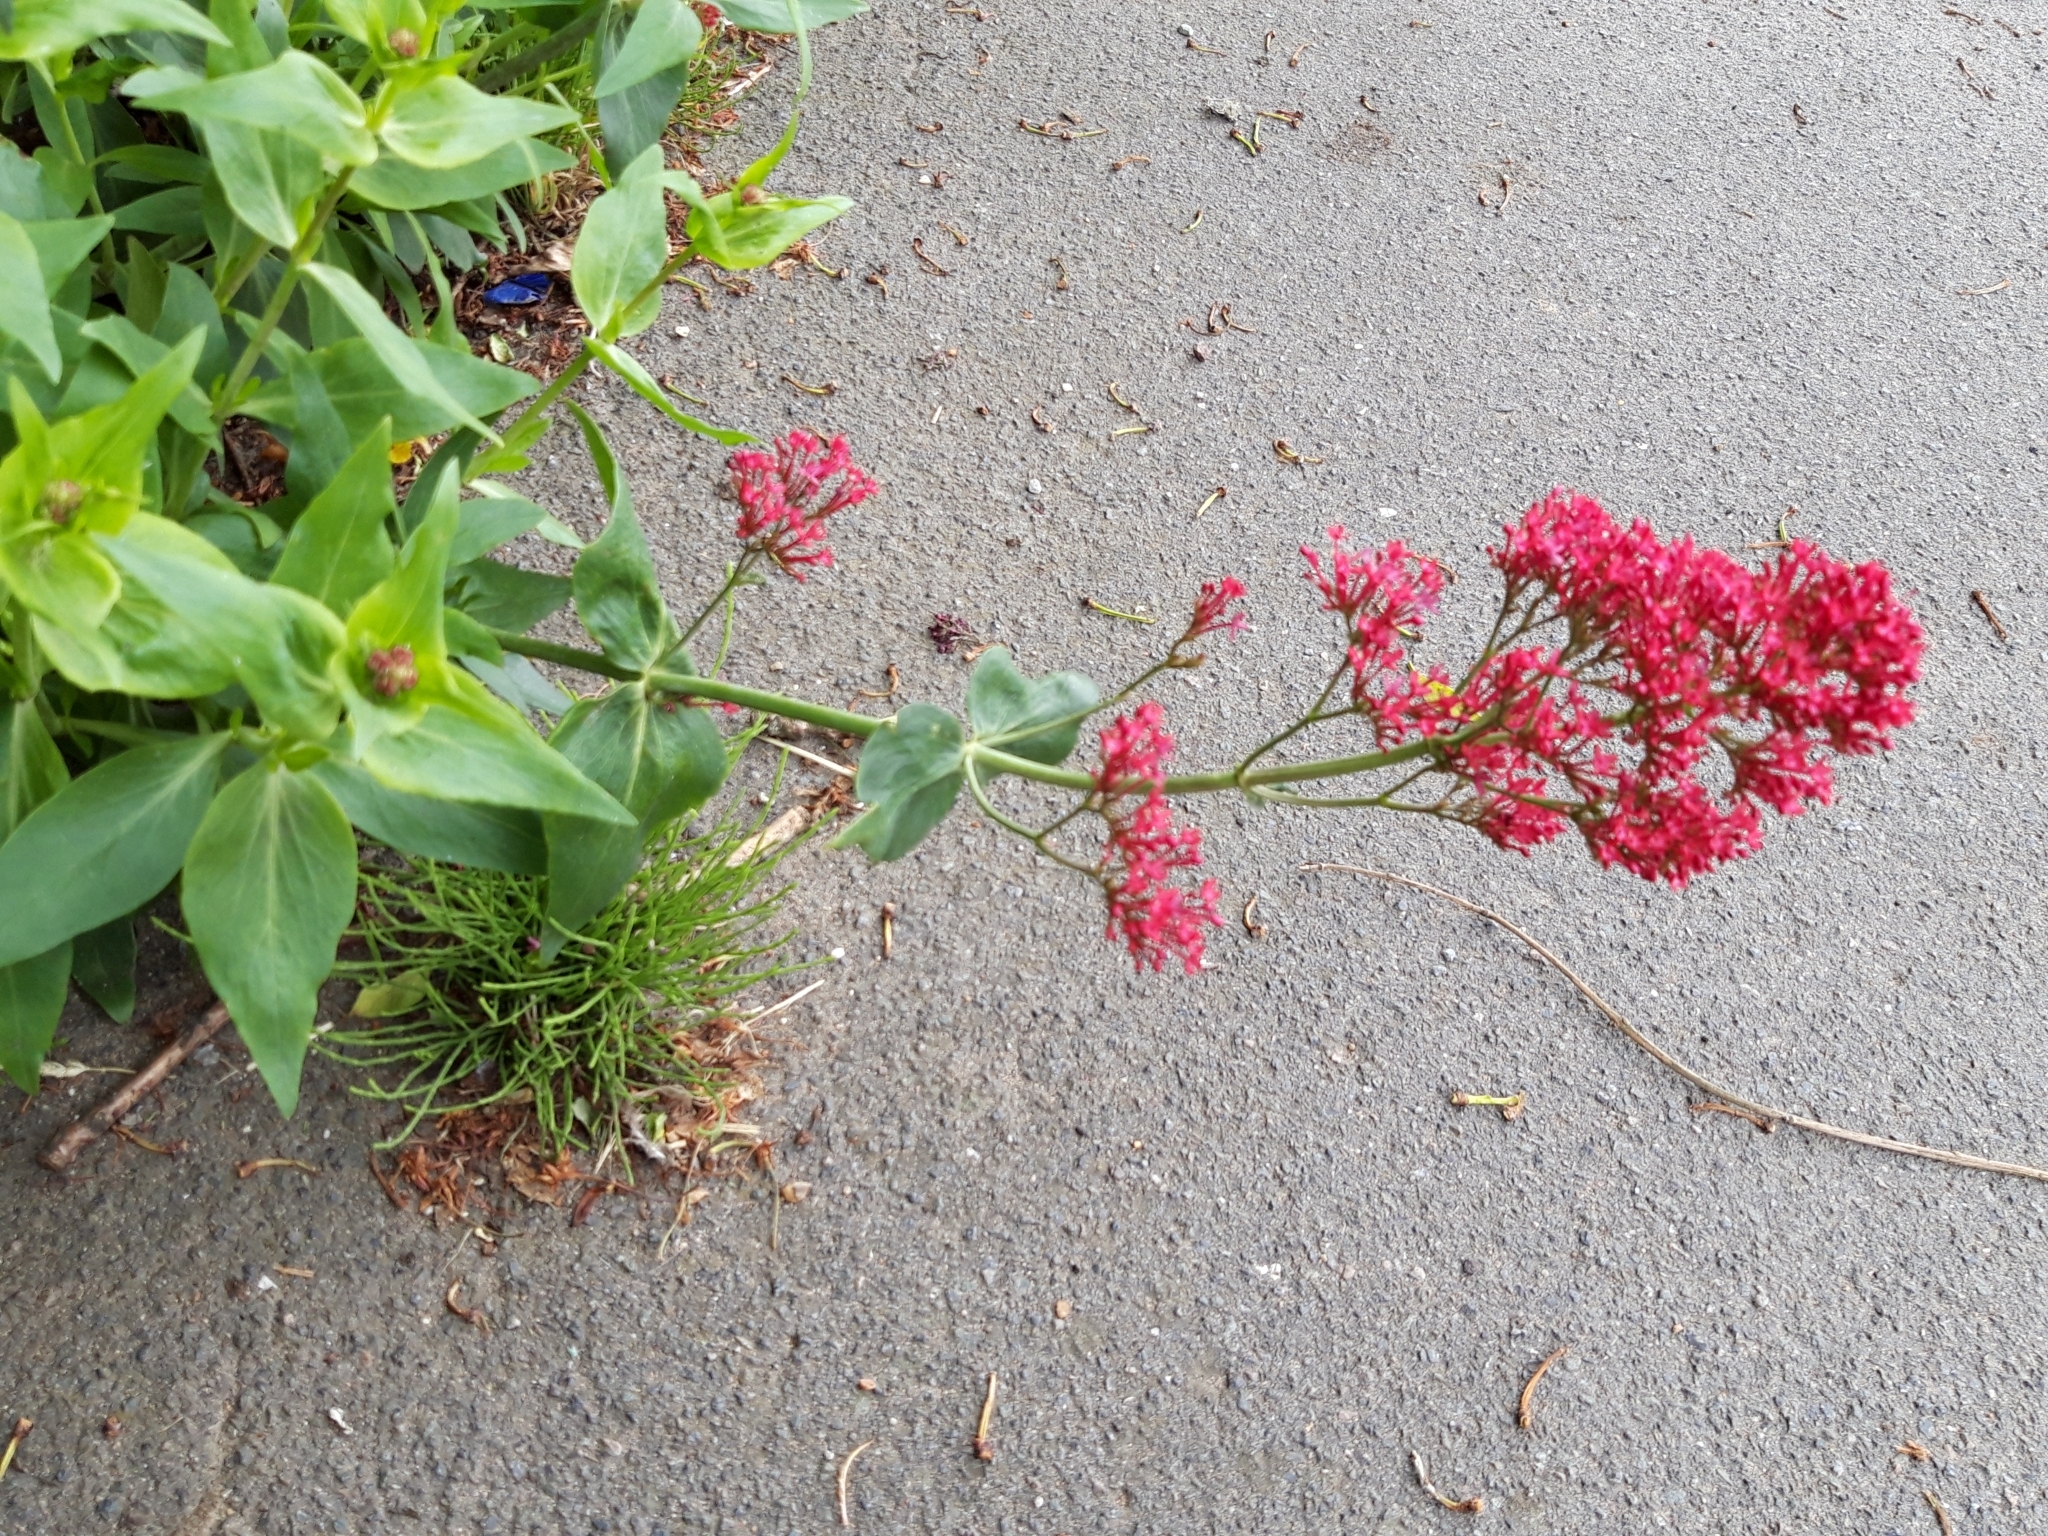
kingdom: Plantae
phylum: Tracheophyta
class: Magnoliopsida
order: Dipsacales
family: Caprifoliaceae
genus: Centranthus
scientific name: Centranthus ruber
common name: Red valerian
